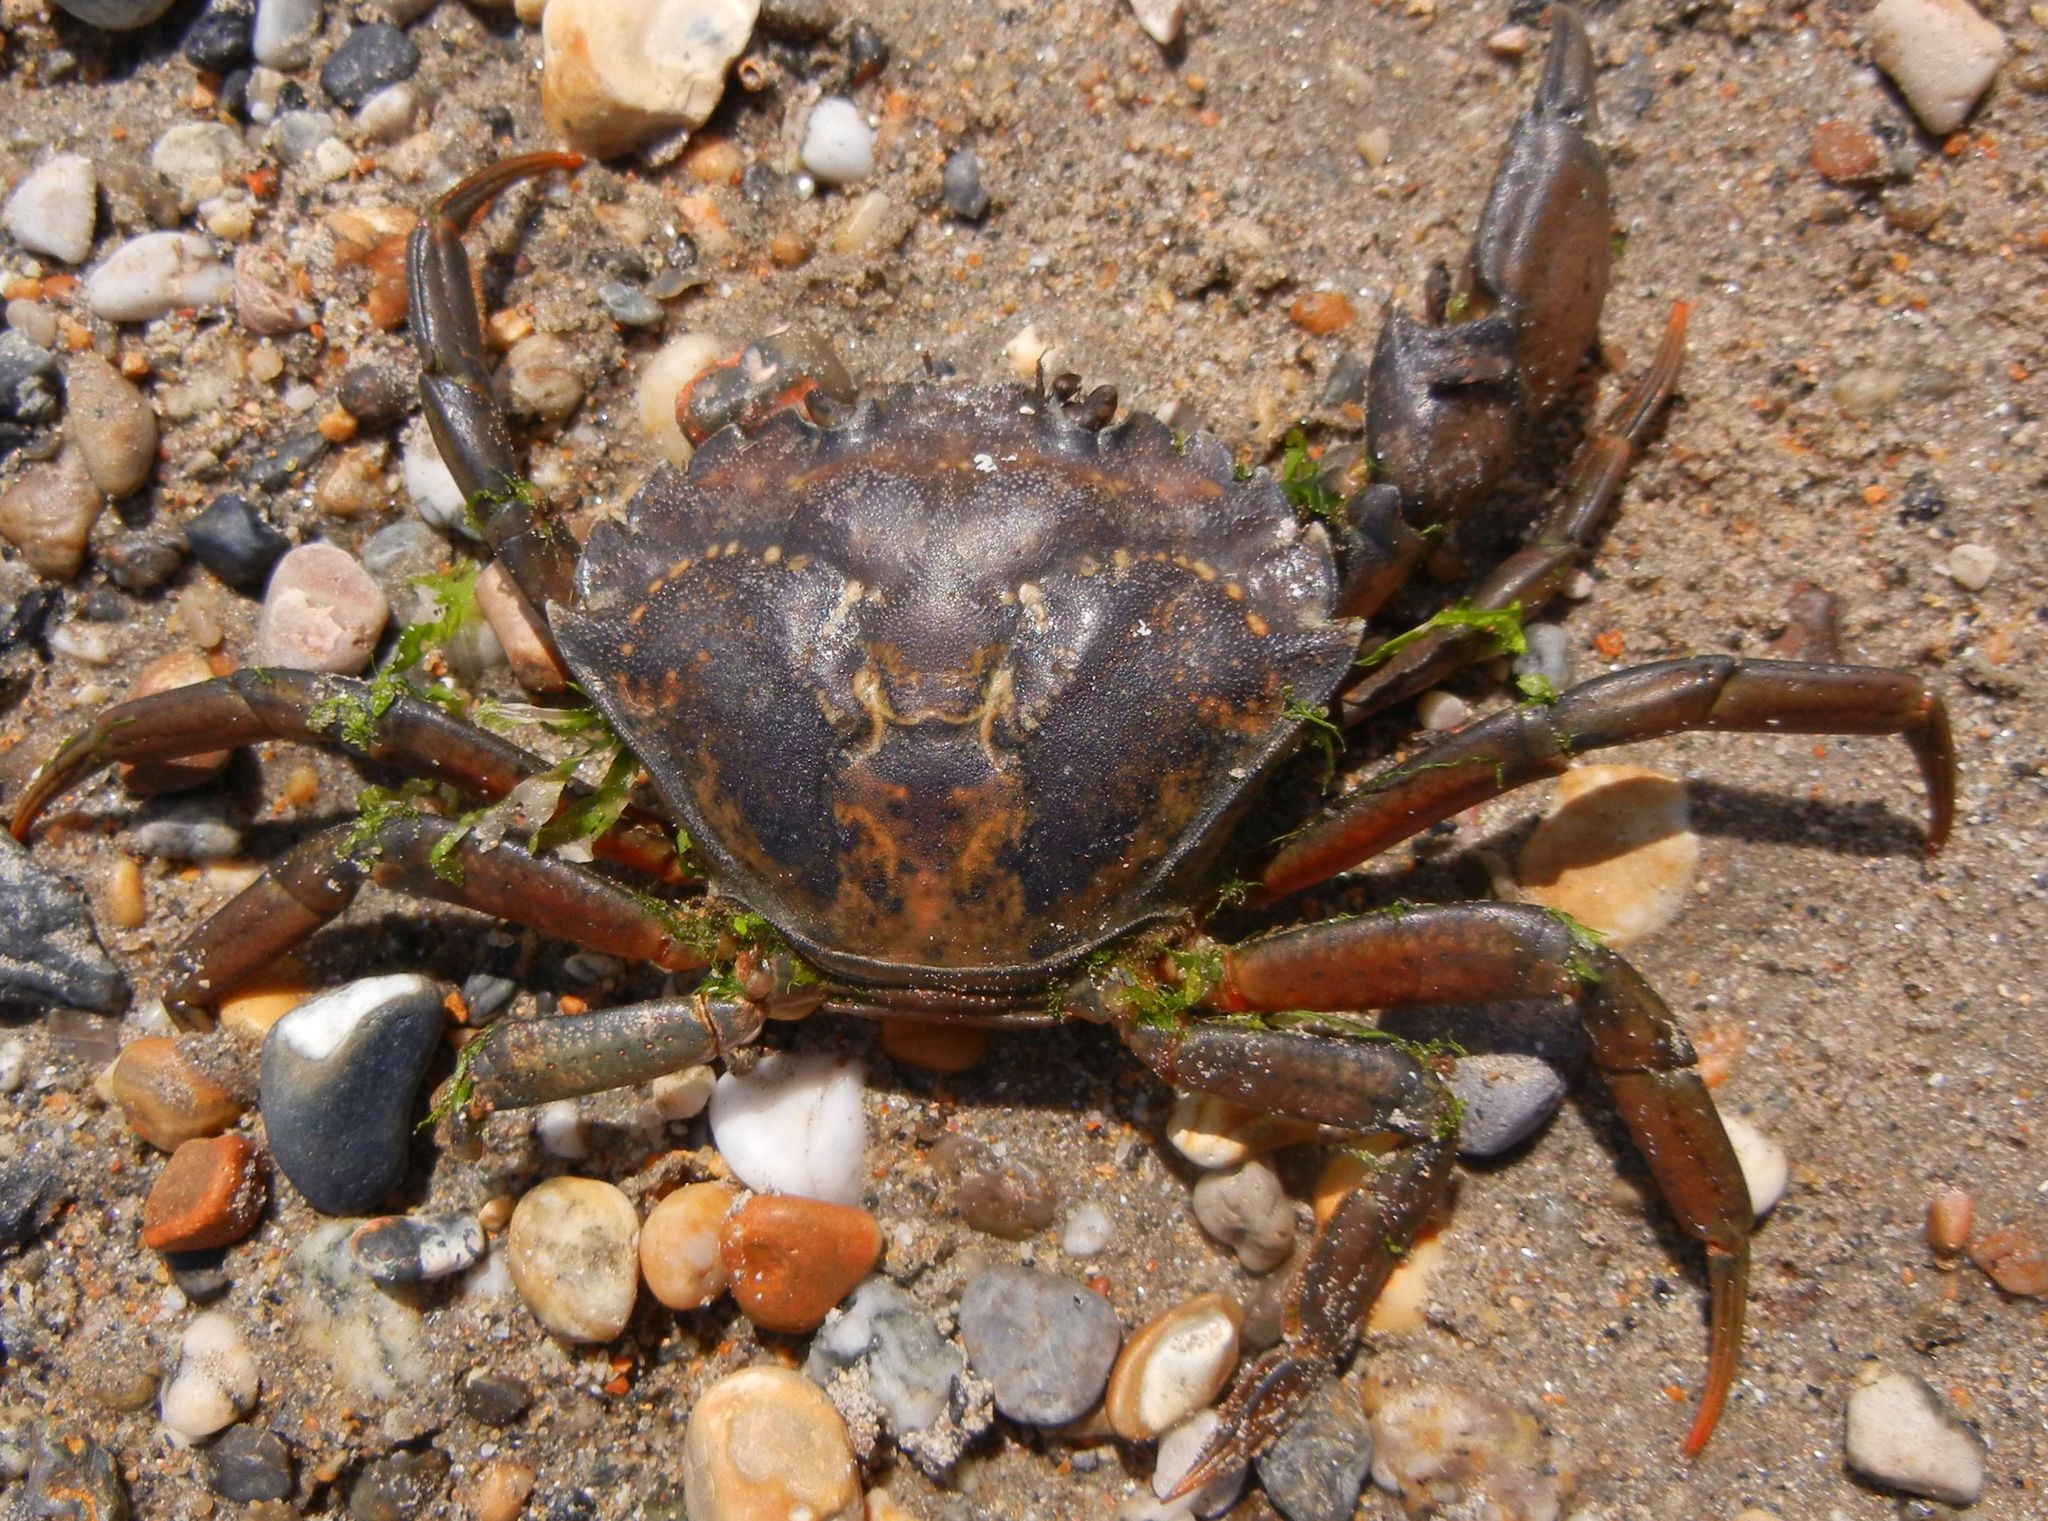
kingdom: Animalia
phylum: Arthropoda
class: Malacostraca
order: Decapoda
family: Carcinidae
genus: Carcinus
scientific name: Carcinus maenas
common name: European green crab
